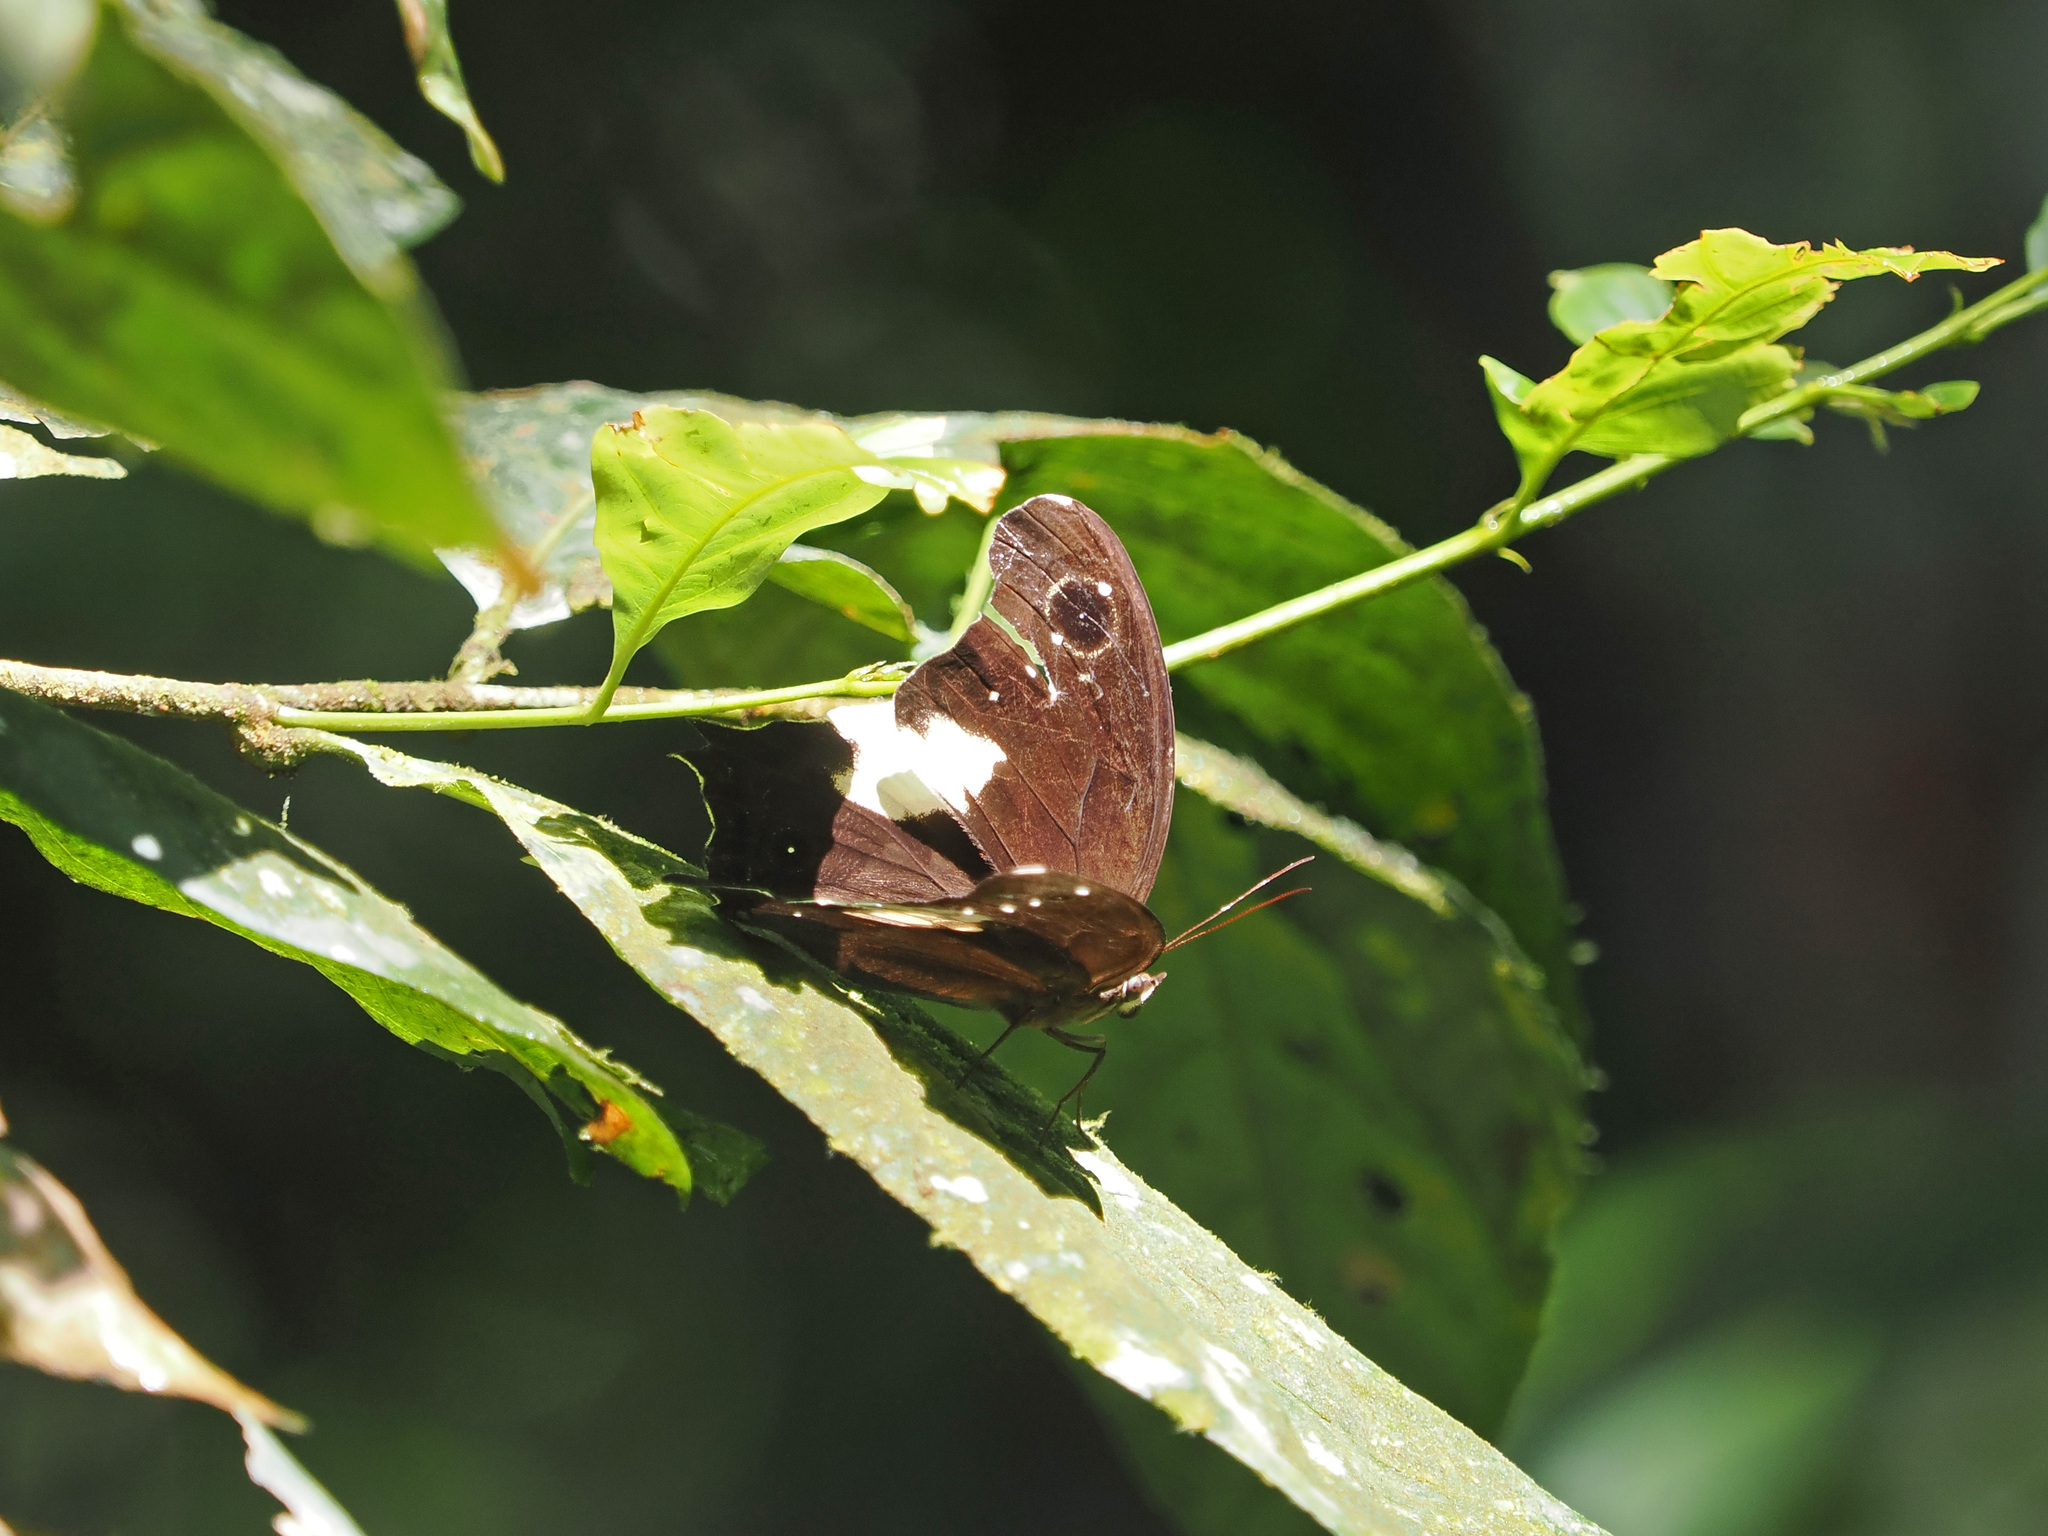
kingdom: Animalia
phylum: Arthropoda
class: Insecta
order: Lepidoptera
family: Nymphalidae
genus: Neorina
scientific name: Neorina lowii
